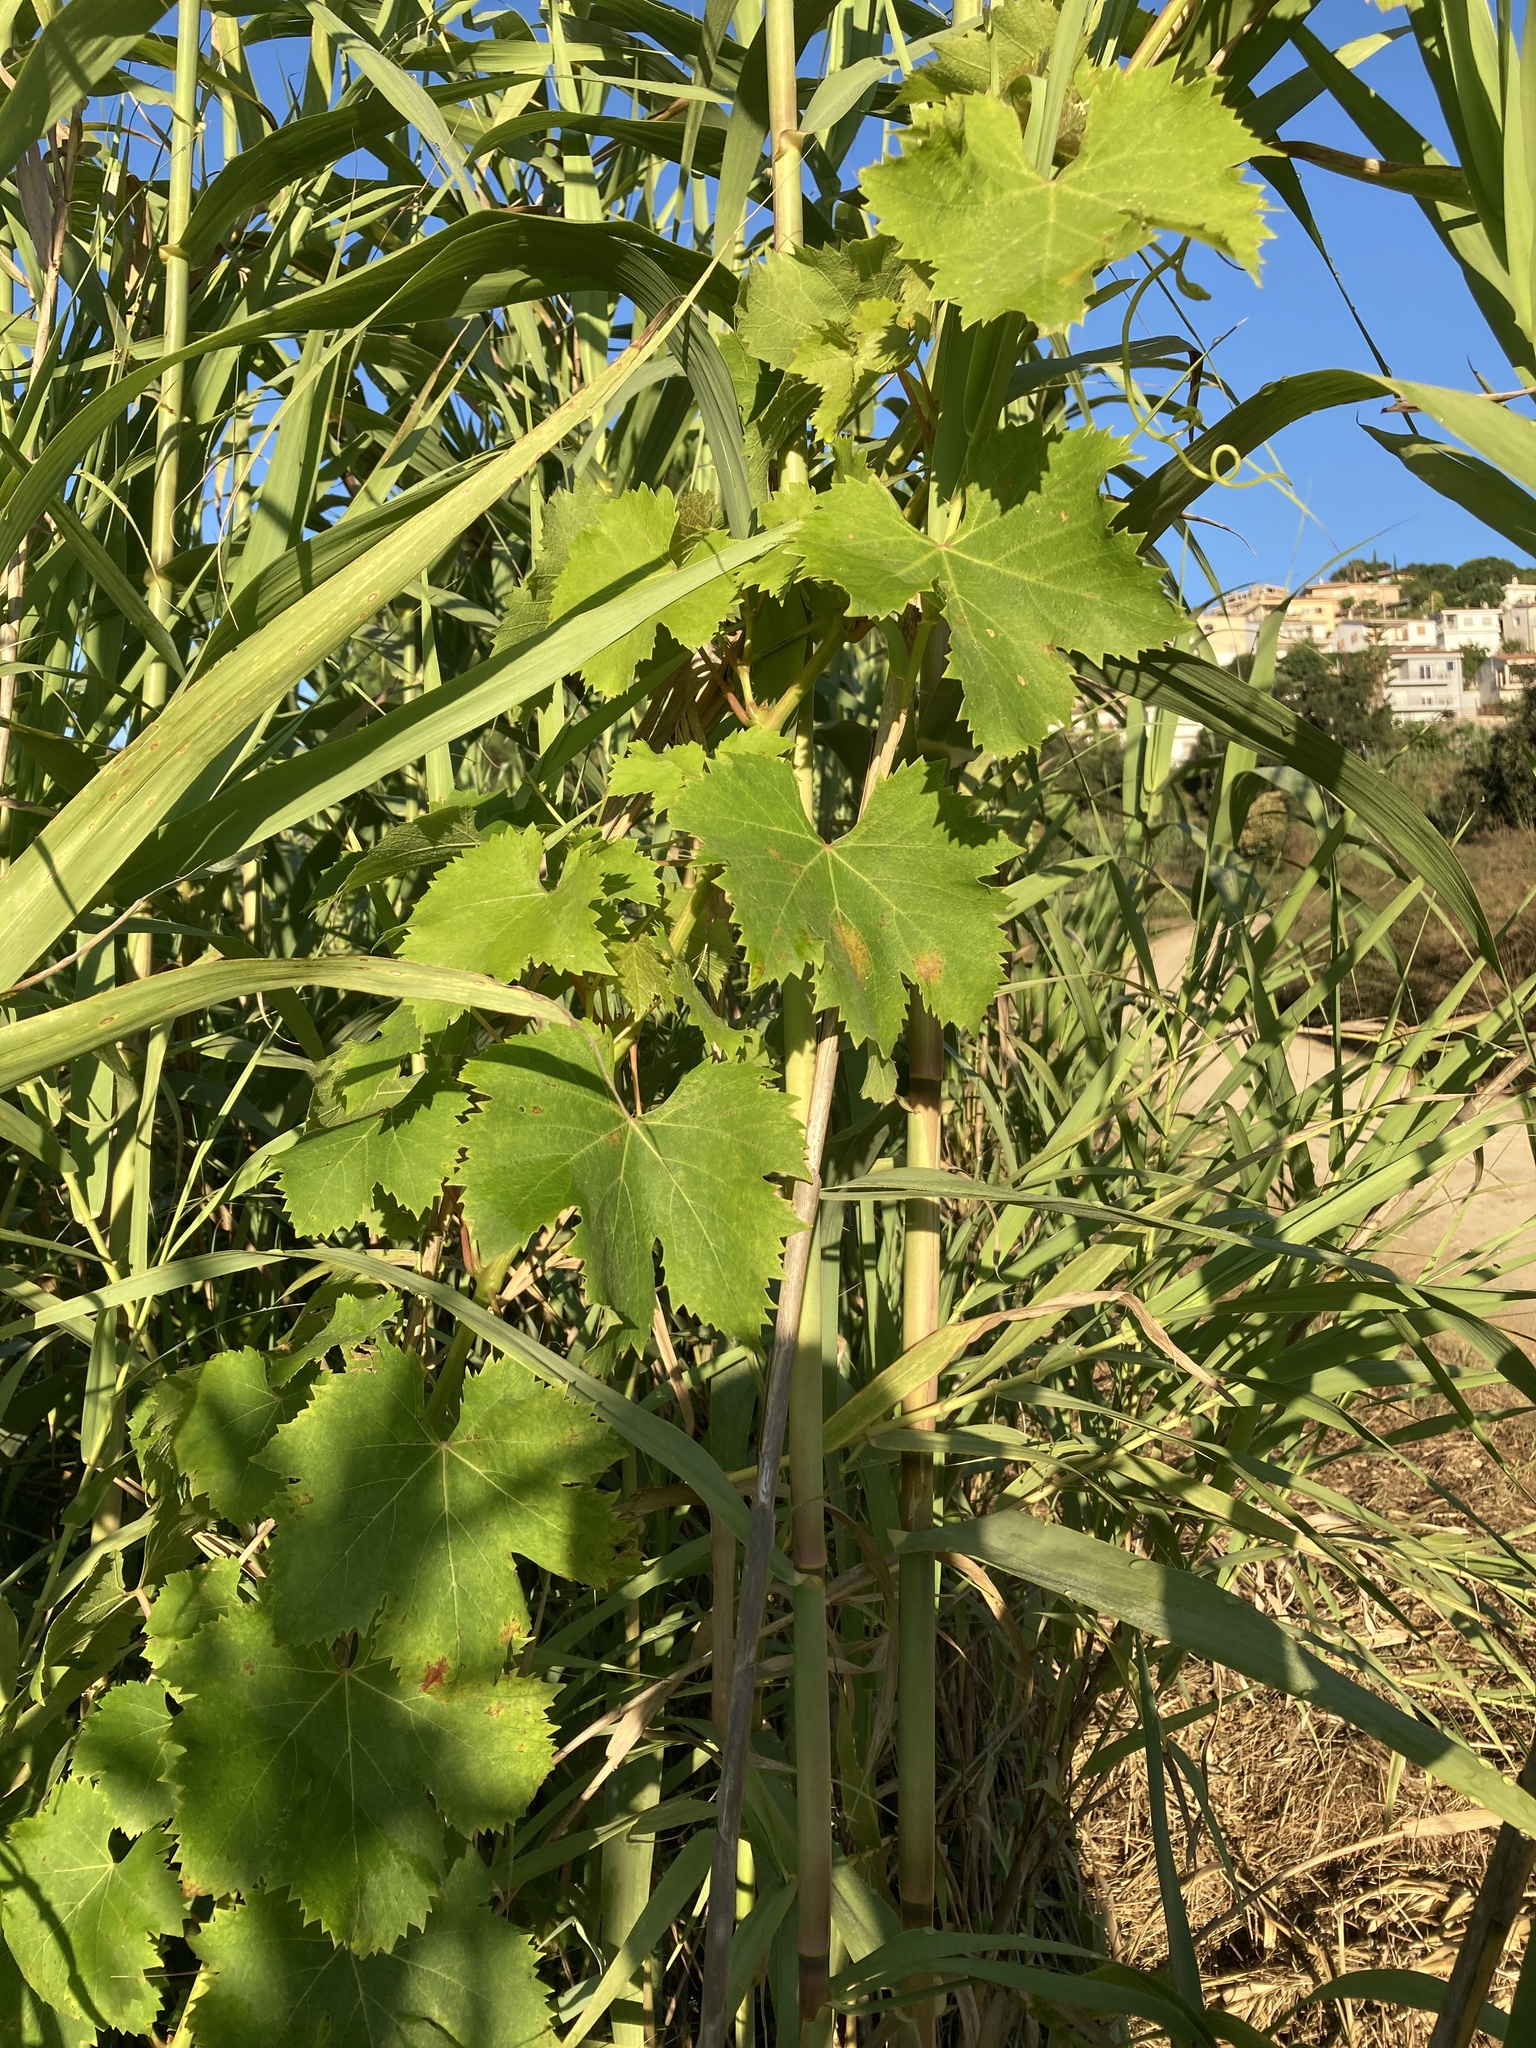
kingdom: Plantae
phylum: Tracheophyta
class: Magnoliopsida
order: Vitales
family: Vitaceae
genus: Vitis
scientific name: Vitis vinifera
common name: Grape-vine
